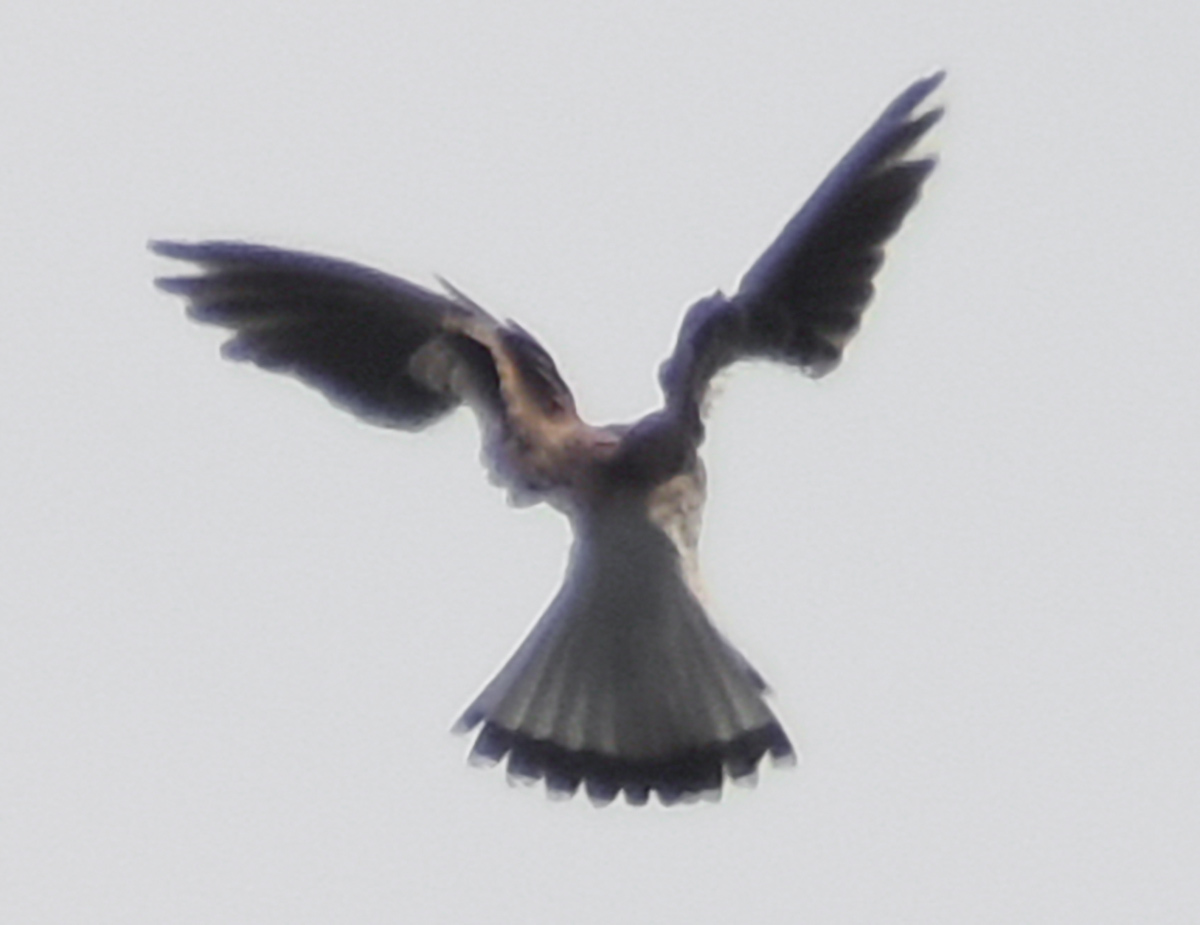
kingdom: Animalia
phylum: Chordata
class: Aves
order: Falconiformes
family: Falconidae
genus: Falco
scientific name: Falco tinnunculus
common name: Common kestrel
